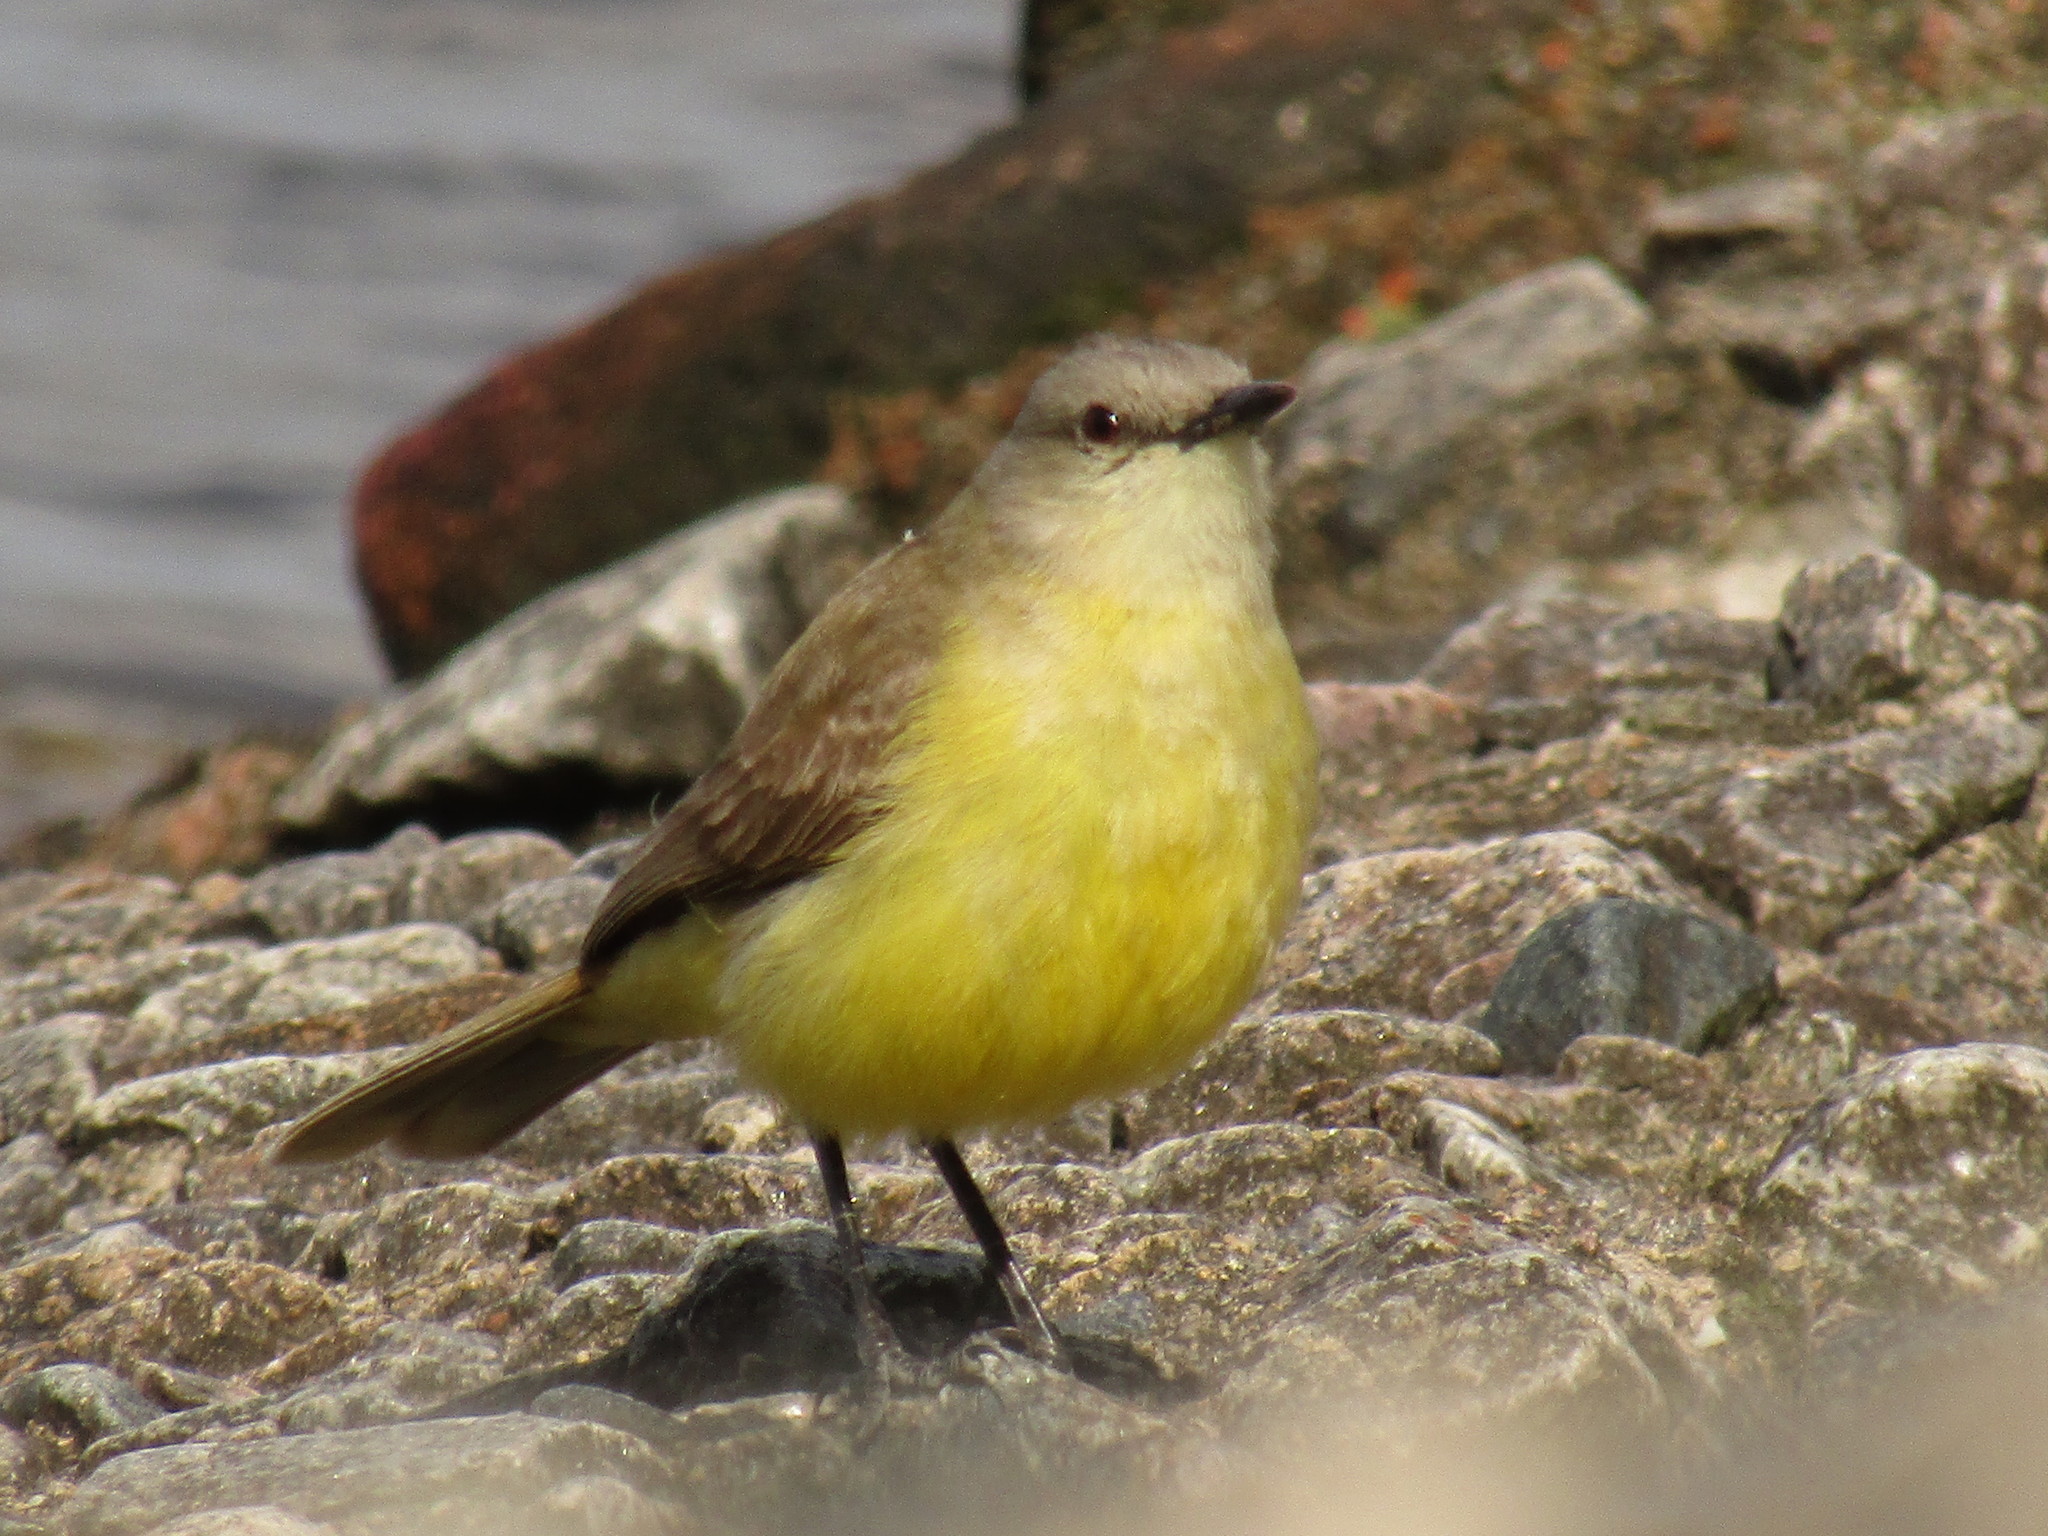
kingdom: Animalia
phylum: Chordata
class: Aves
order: Passeriformes
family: Tyrannidae
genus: Machetornis
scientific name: Machetornis rixosa
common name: Cattle tyrant
